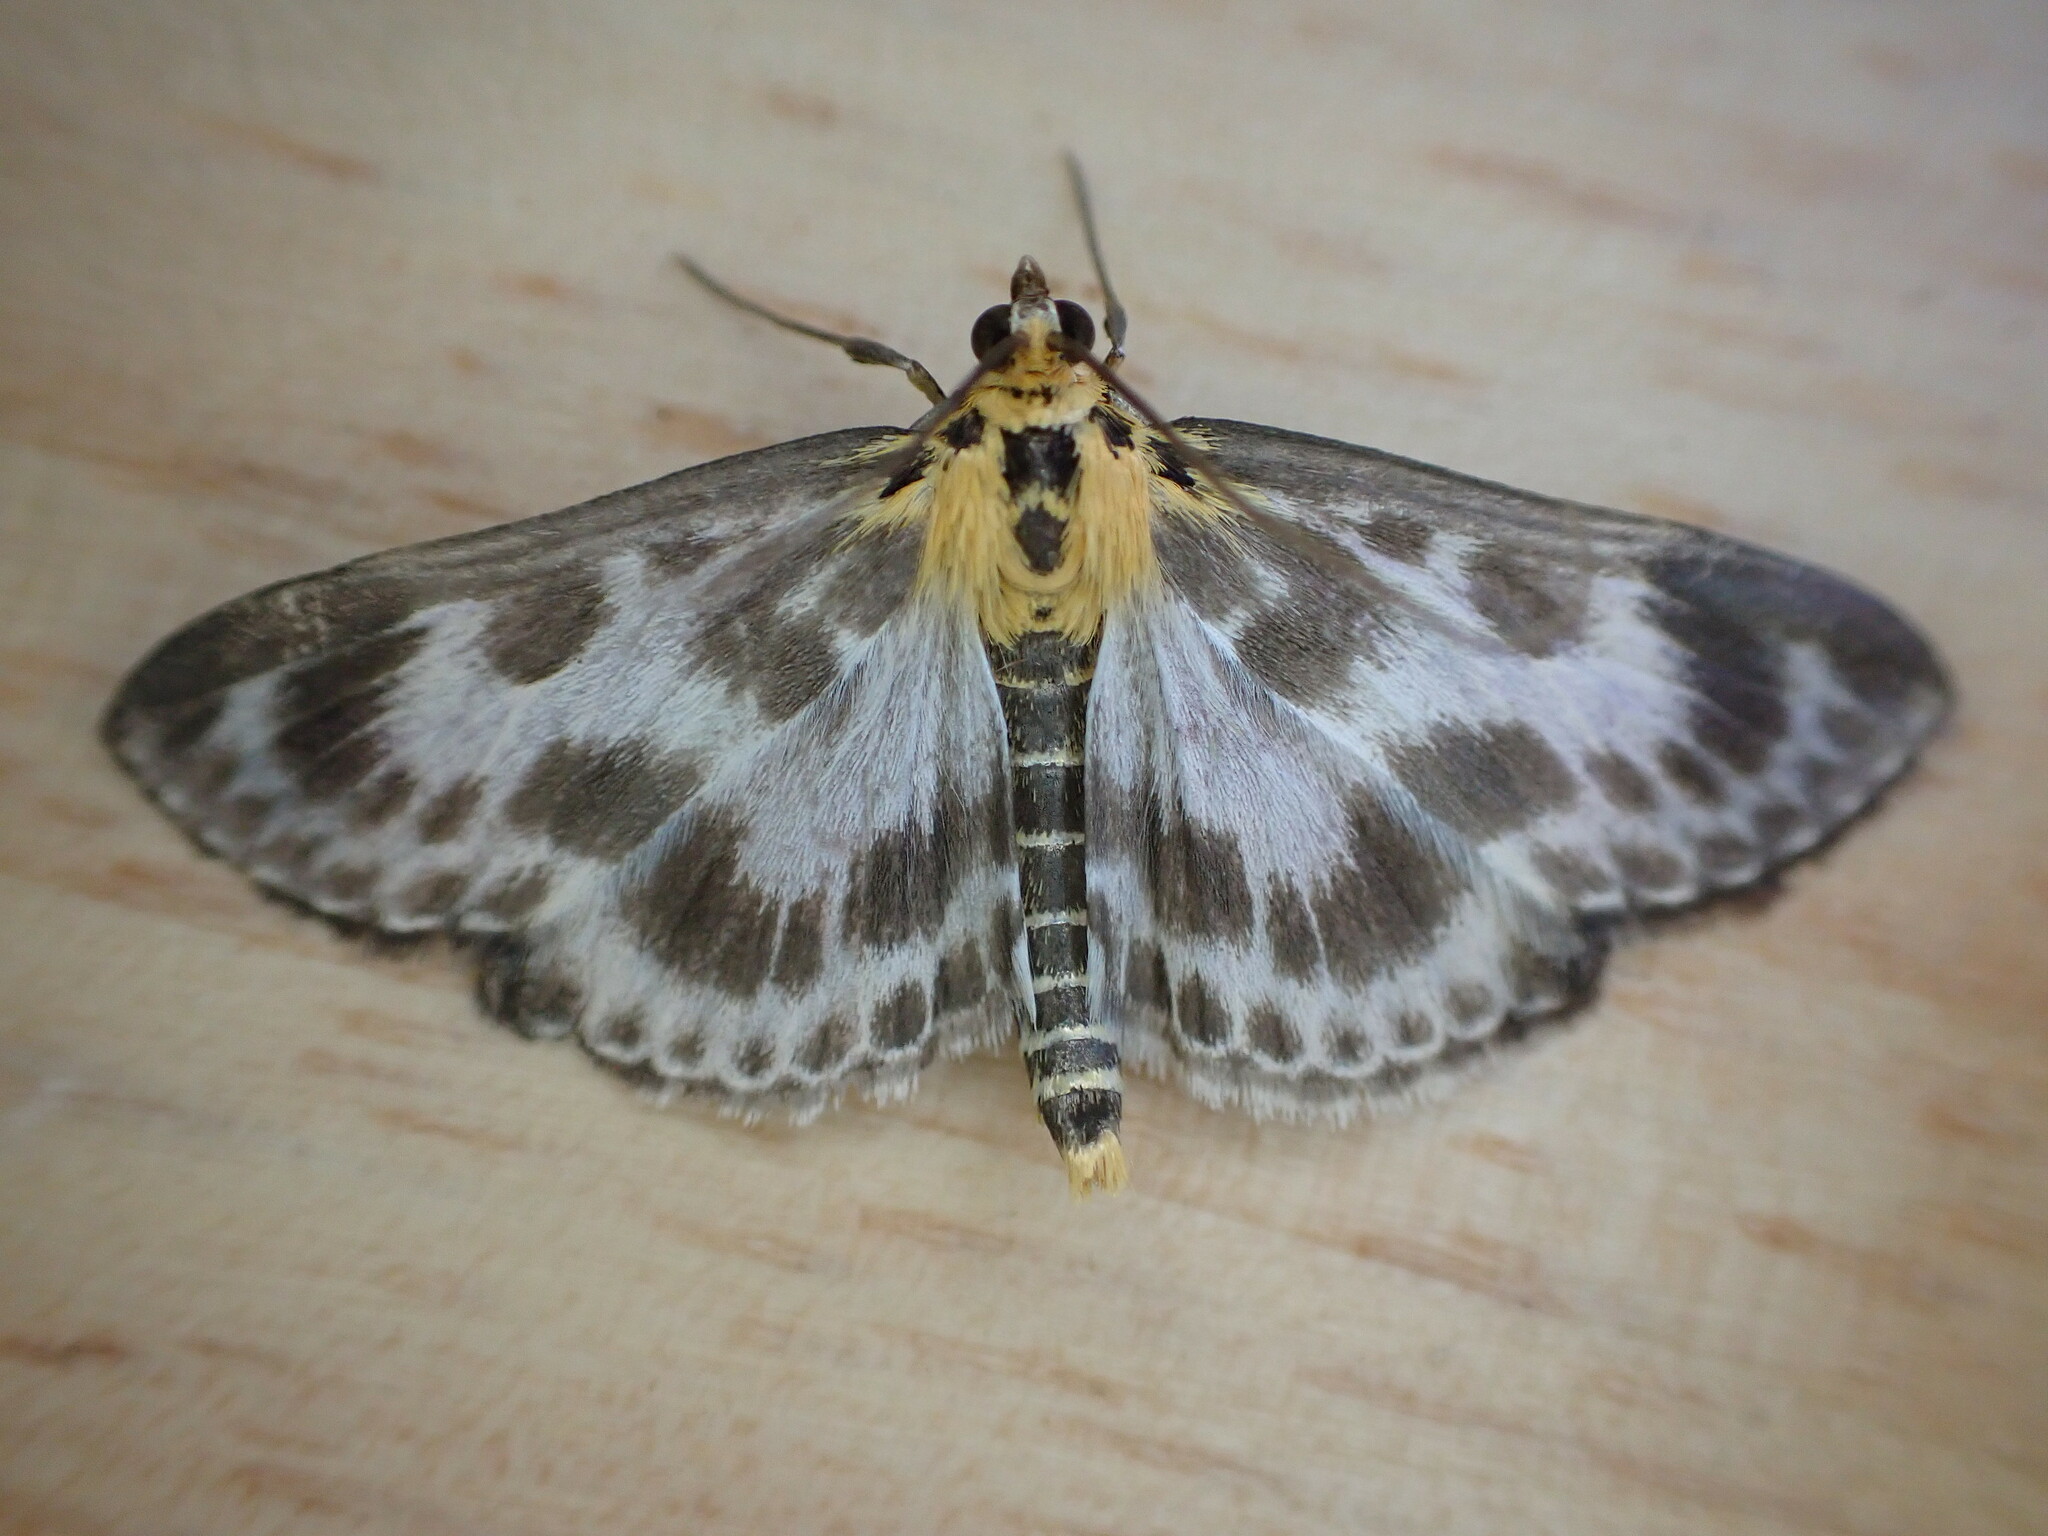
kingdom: Animalia
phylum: Arthropoda
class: Insecta
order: Lepidoptera
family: Crambidae
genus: Anania
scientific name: Anania hortulata
